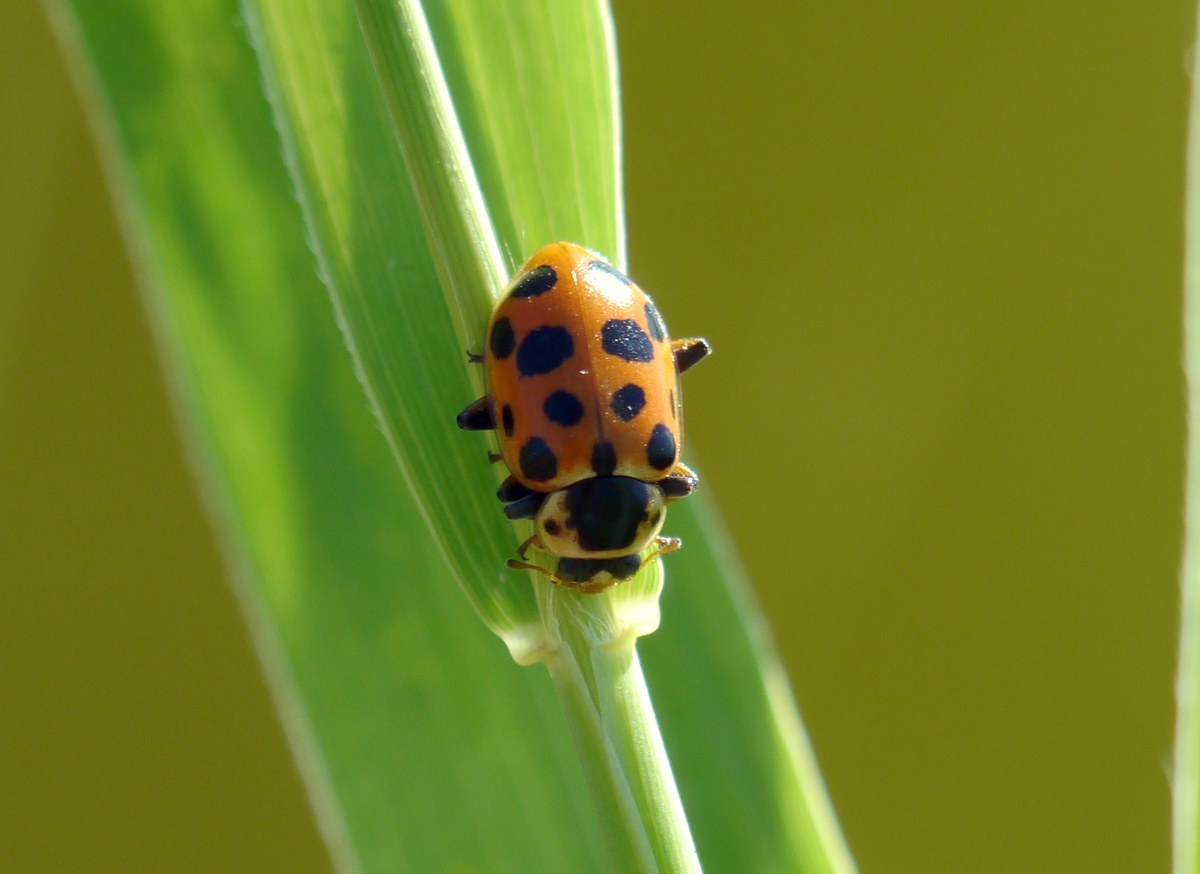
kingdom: Animalia
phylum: Arthropoda
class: Insecta
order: Coleoptera
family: Coccinellidae
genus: Hippodamia
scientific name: Hippodamia tredecimpunctata
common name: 13-spot ladybird
